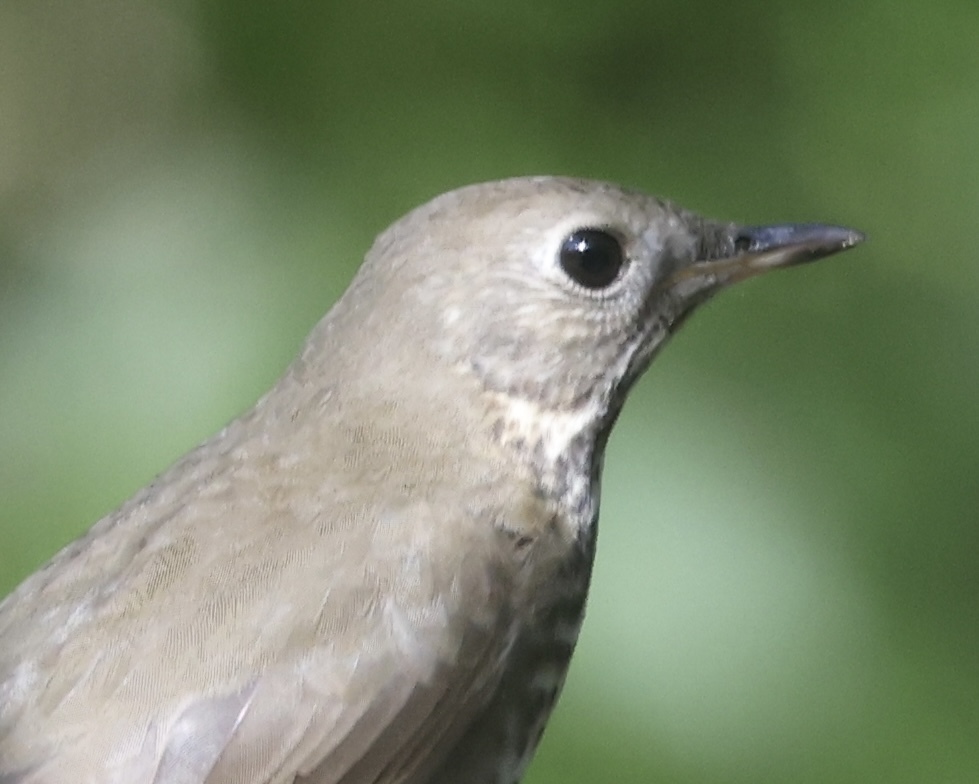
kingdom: Animalia
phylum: Chordata
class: Aves
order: Passeriformes
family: Turdidae
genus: Catharus
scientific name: Catharus minimus
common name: Grey-cheeked thrush
